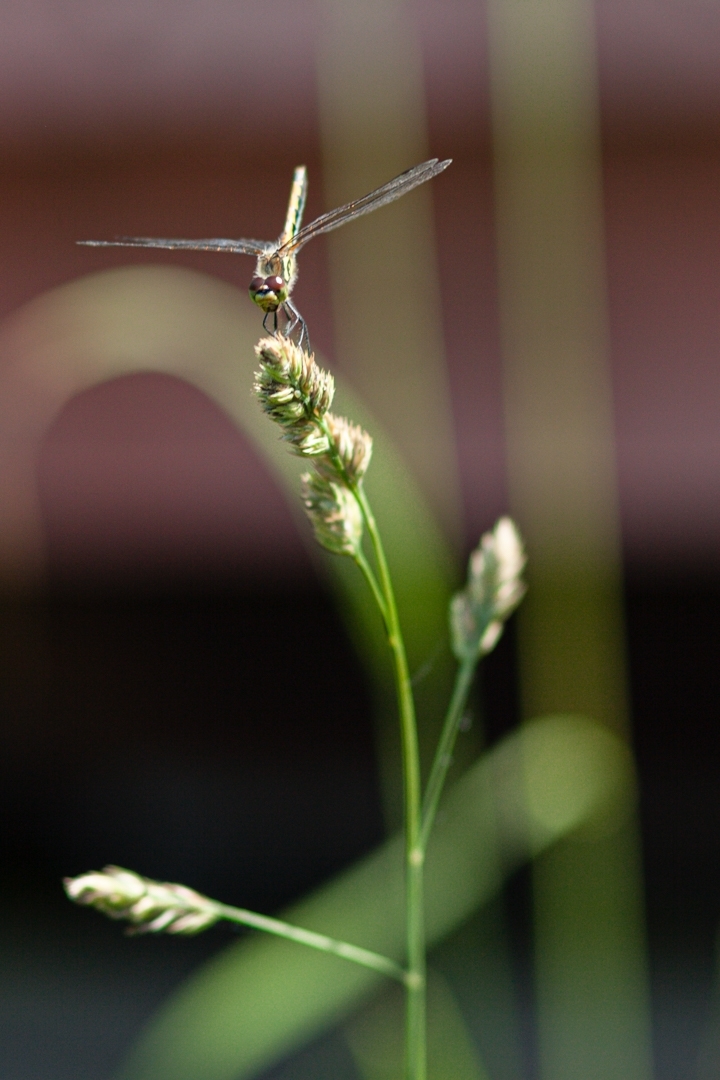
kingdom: Animalia
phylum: Arthropoda
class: Insecta
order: Odonata
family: Libellulidae
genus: Sympetrum
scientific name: Sympetrum danae
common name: Black darter
